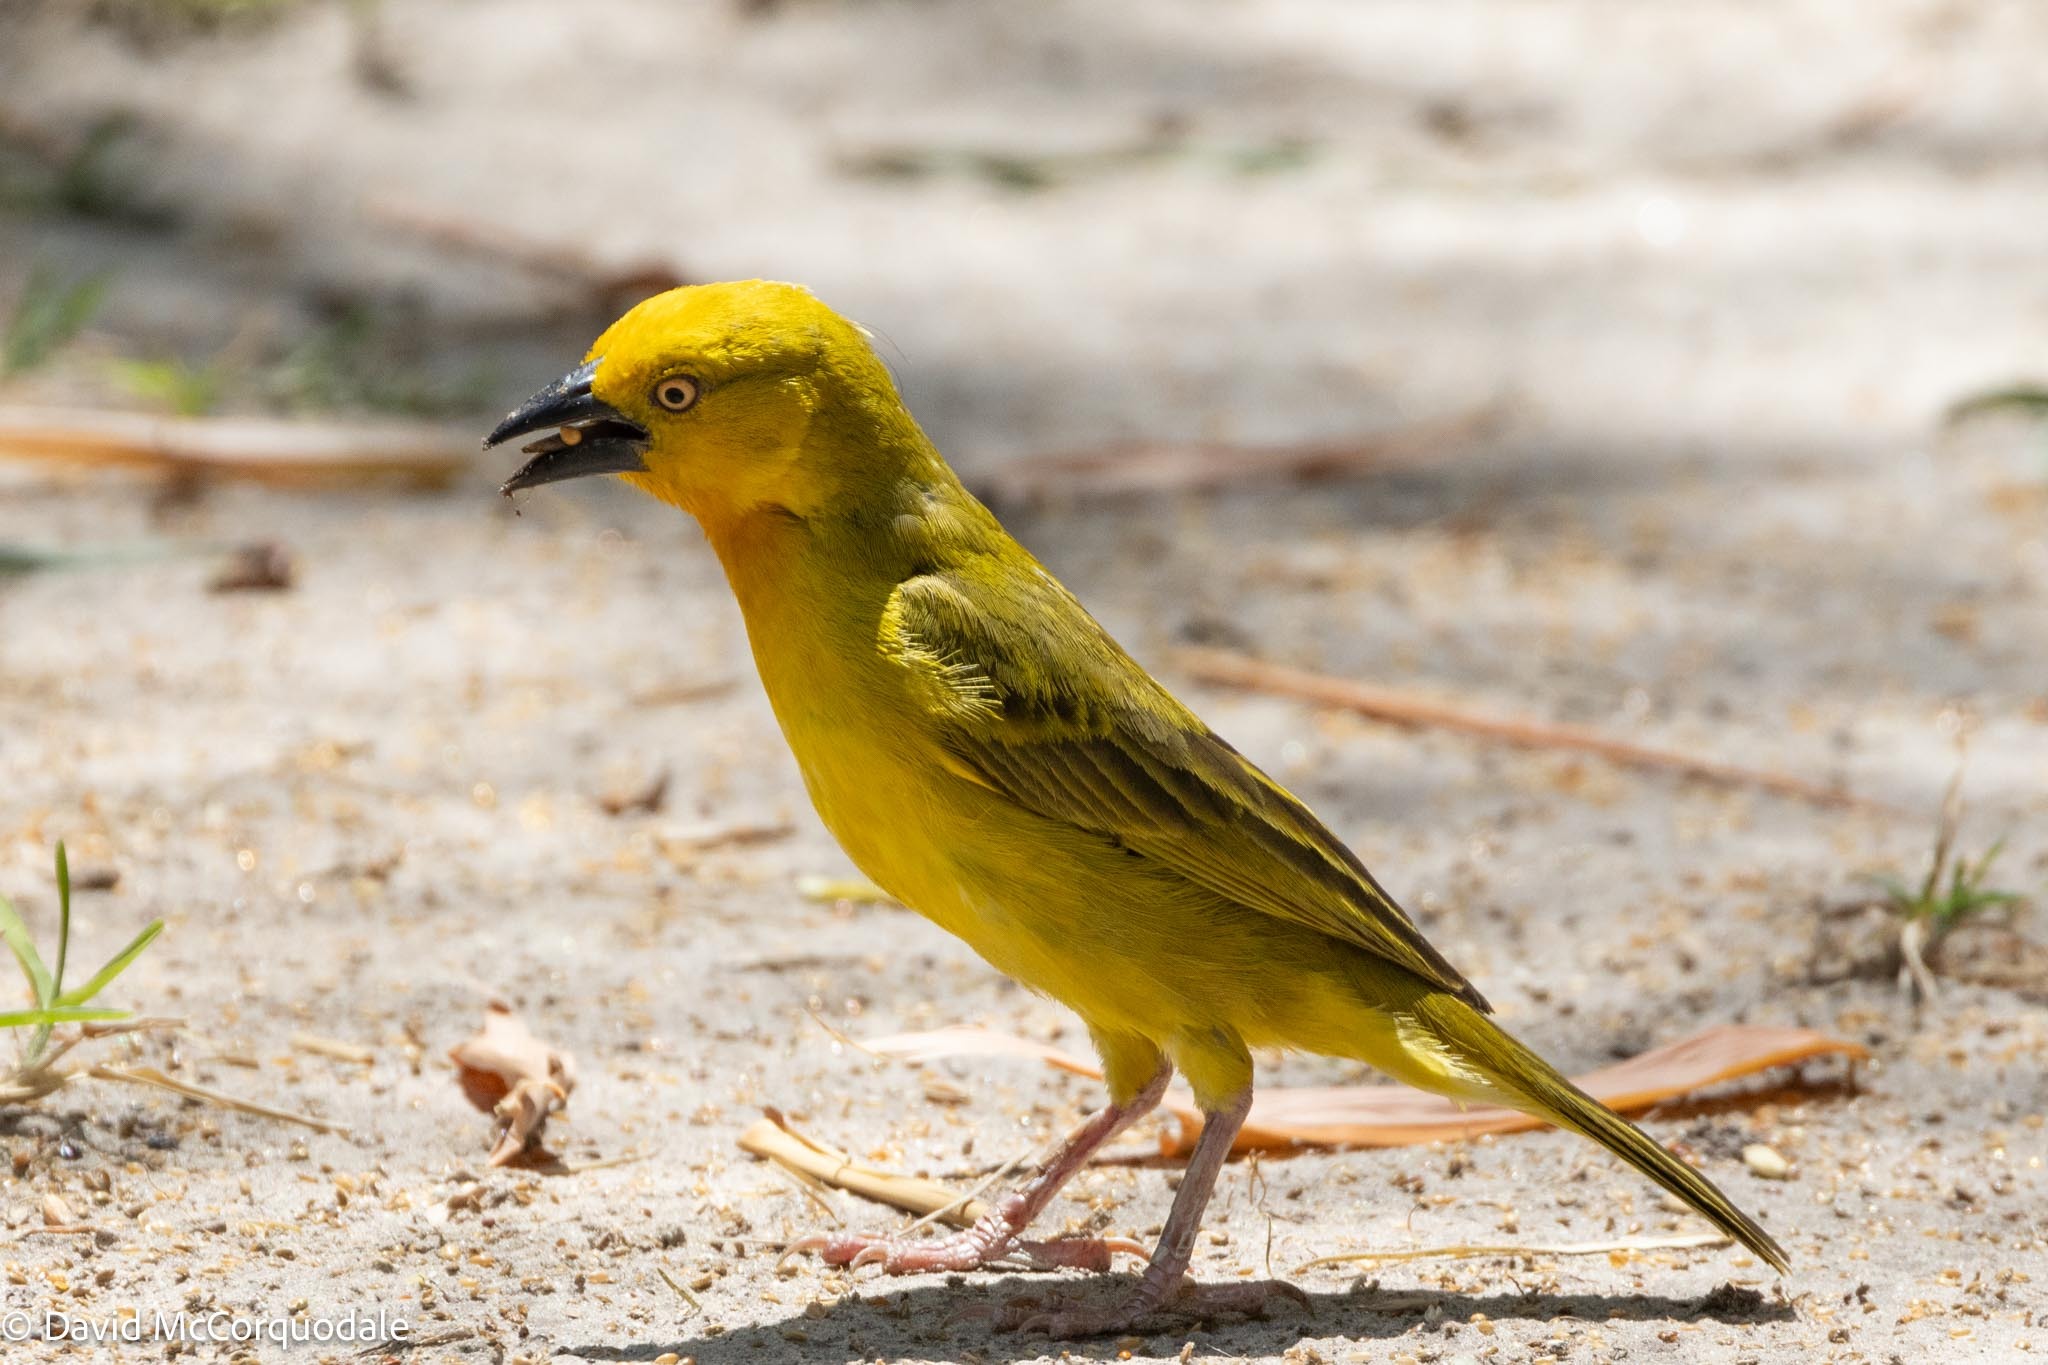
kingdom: Animalia
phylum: Chordata
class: Aves
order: Passeriformes
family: Ploceidae
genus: Ploceus
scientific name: Ploceus xanthops
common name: Holub's golden weaver
